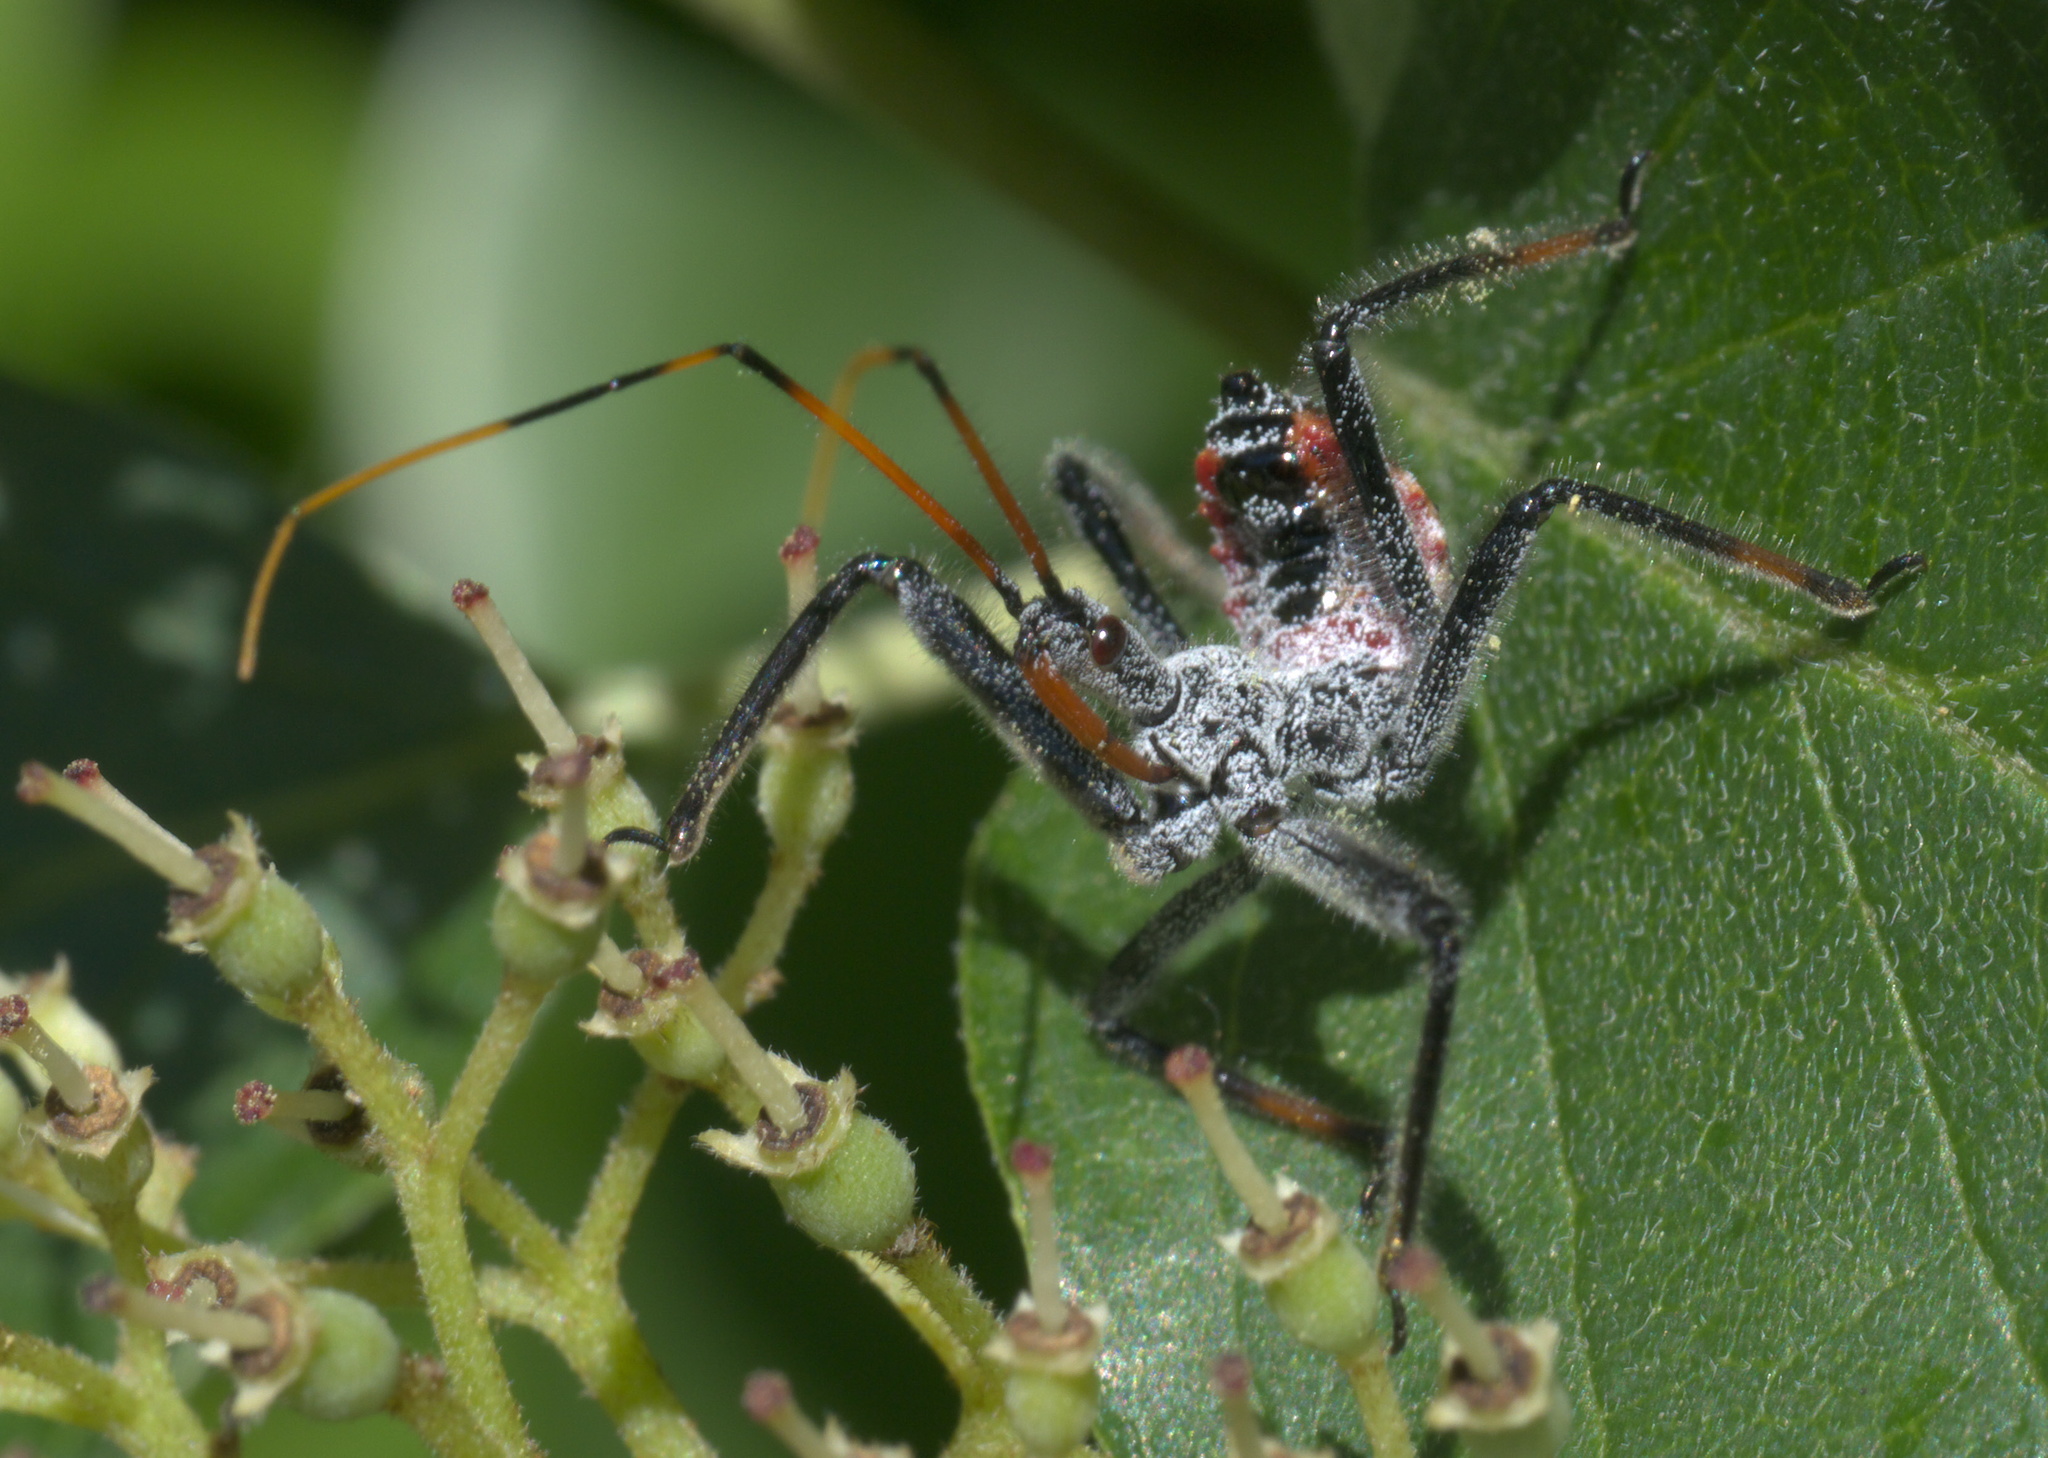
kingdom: Animalia
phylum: Arthropoda
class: Insecta
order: Hemiptera
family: Reduviidae
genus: Arilus
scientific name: Arilus cristatus
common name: North american wheel bug
